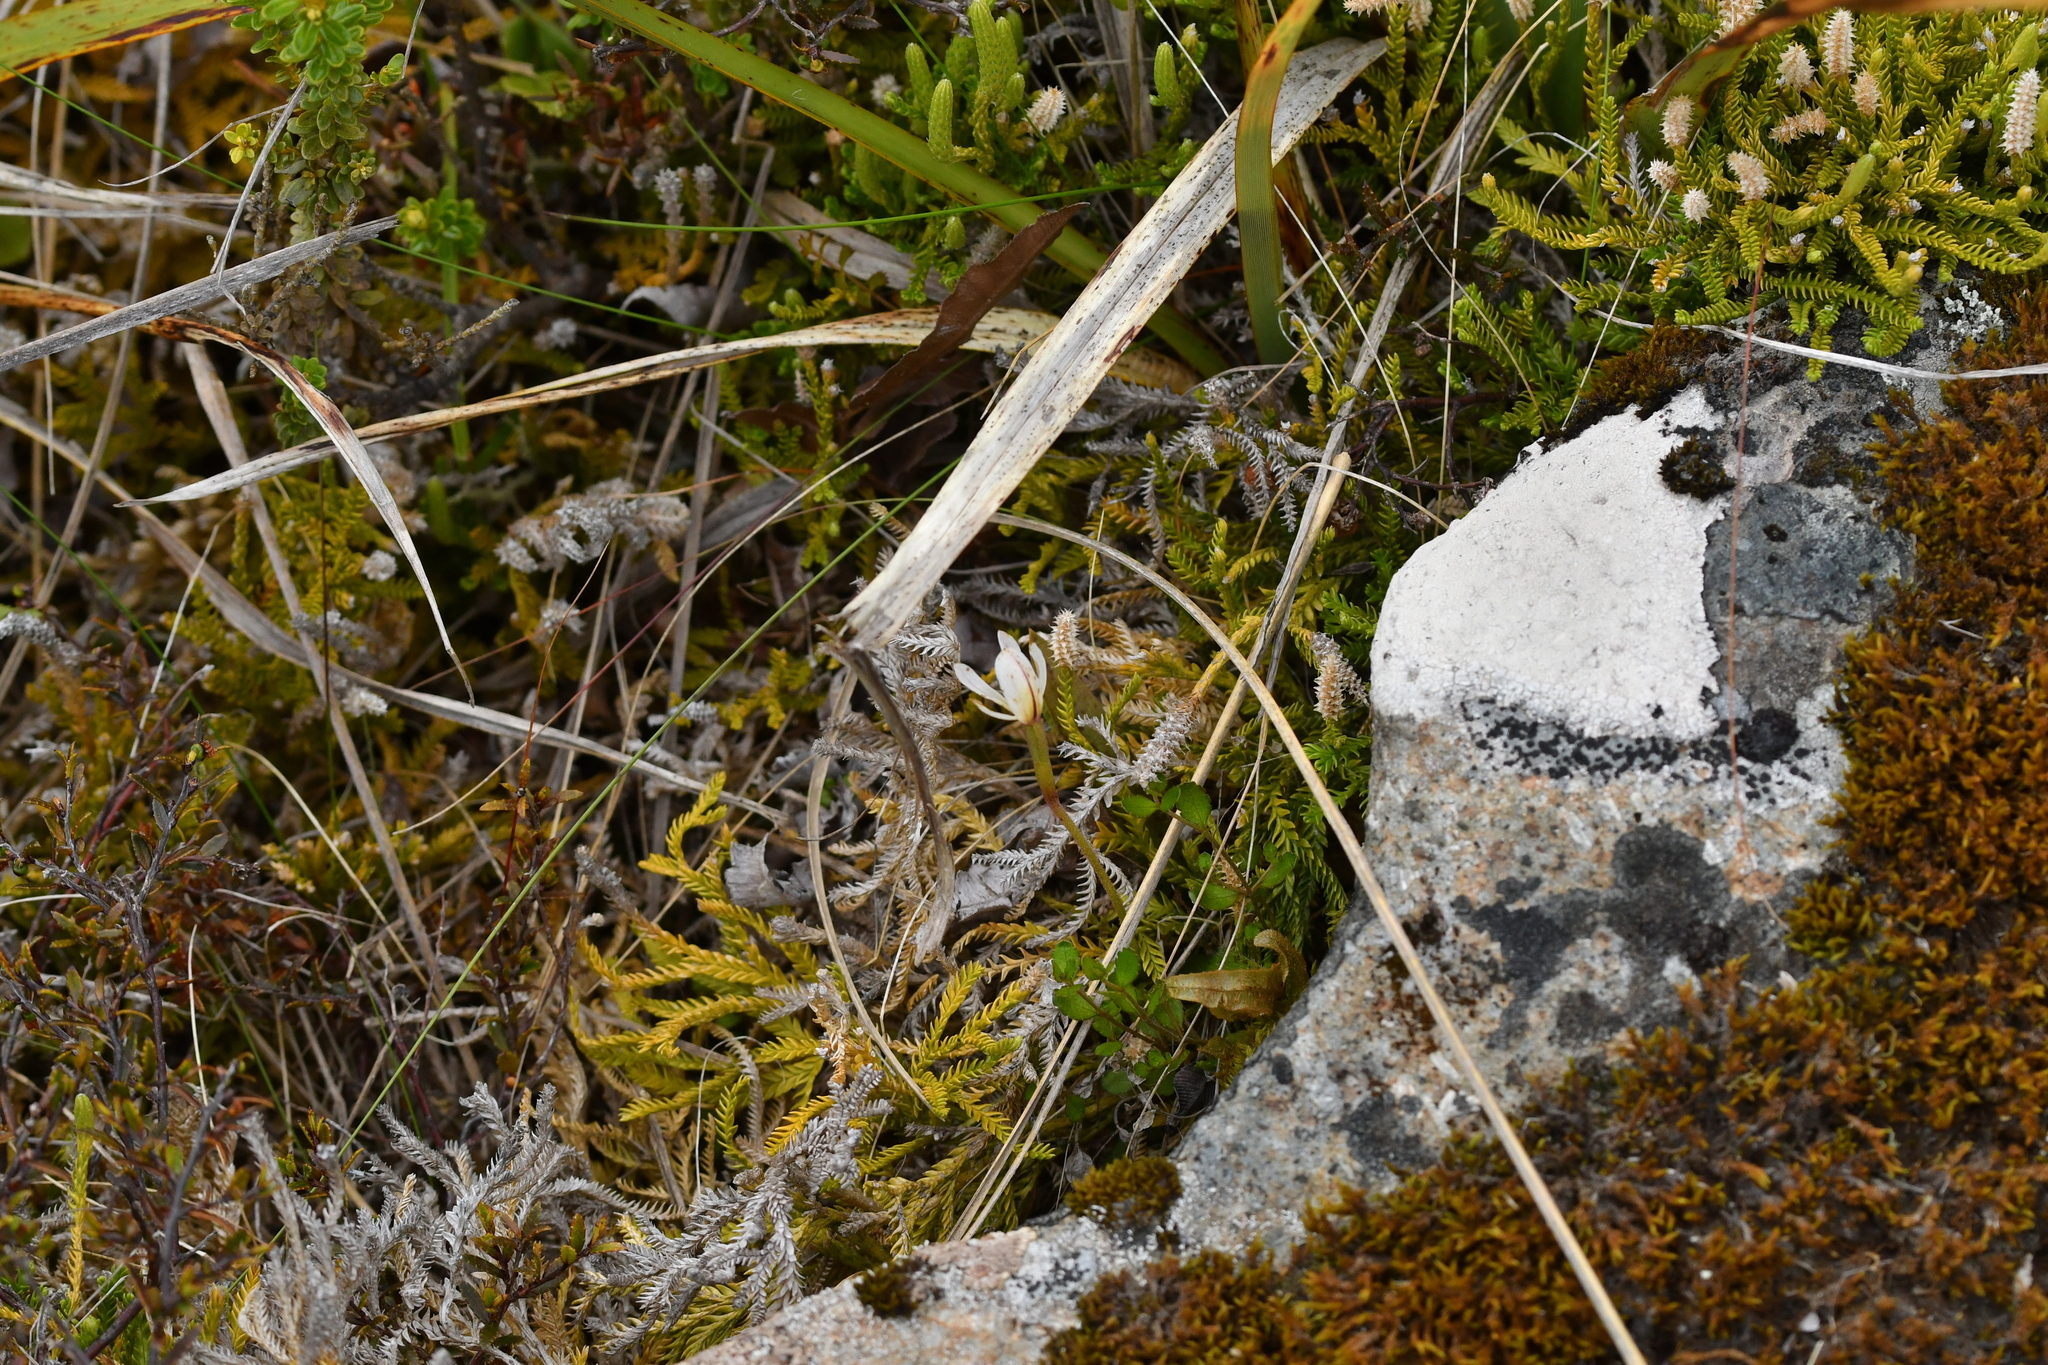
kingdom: Plantae
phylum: Tracheophyta
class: Liliopsida
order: Asparagales
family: Orchidaceae
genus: Aporostylis
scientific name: Aporostylis bifolia
